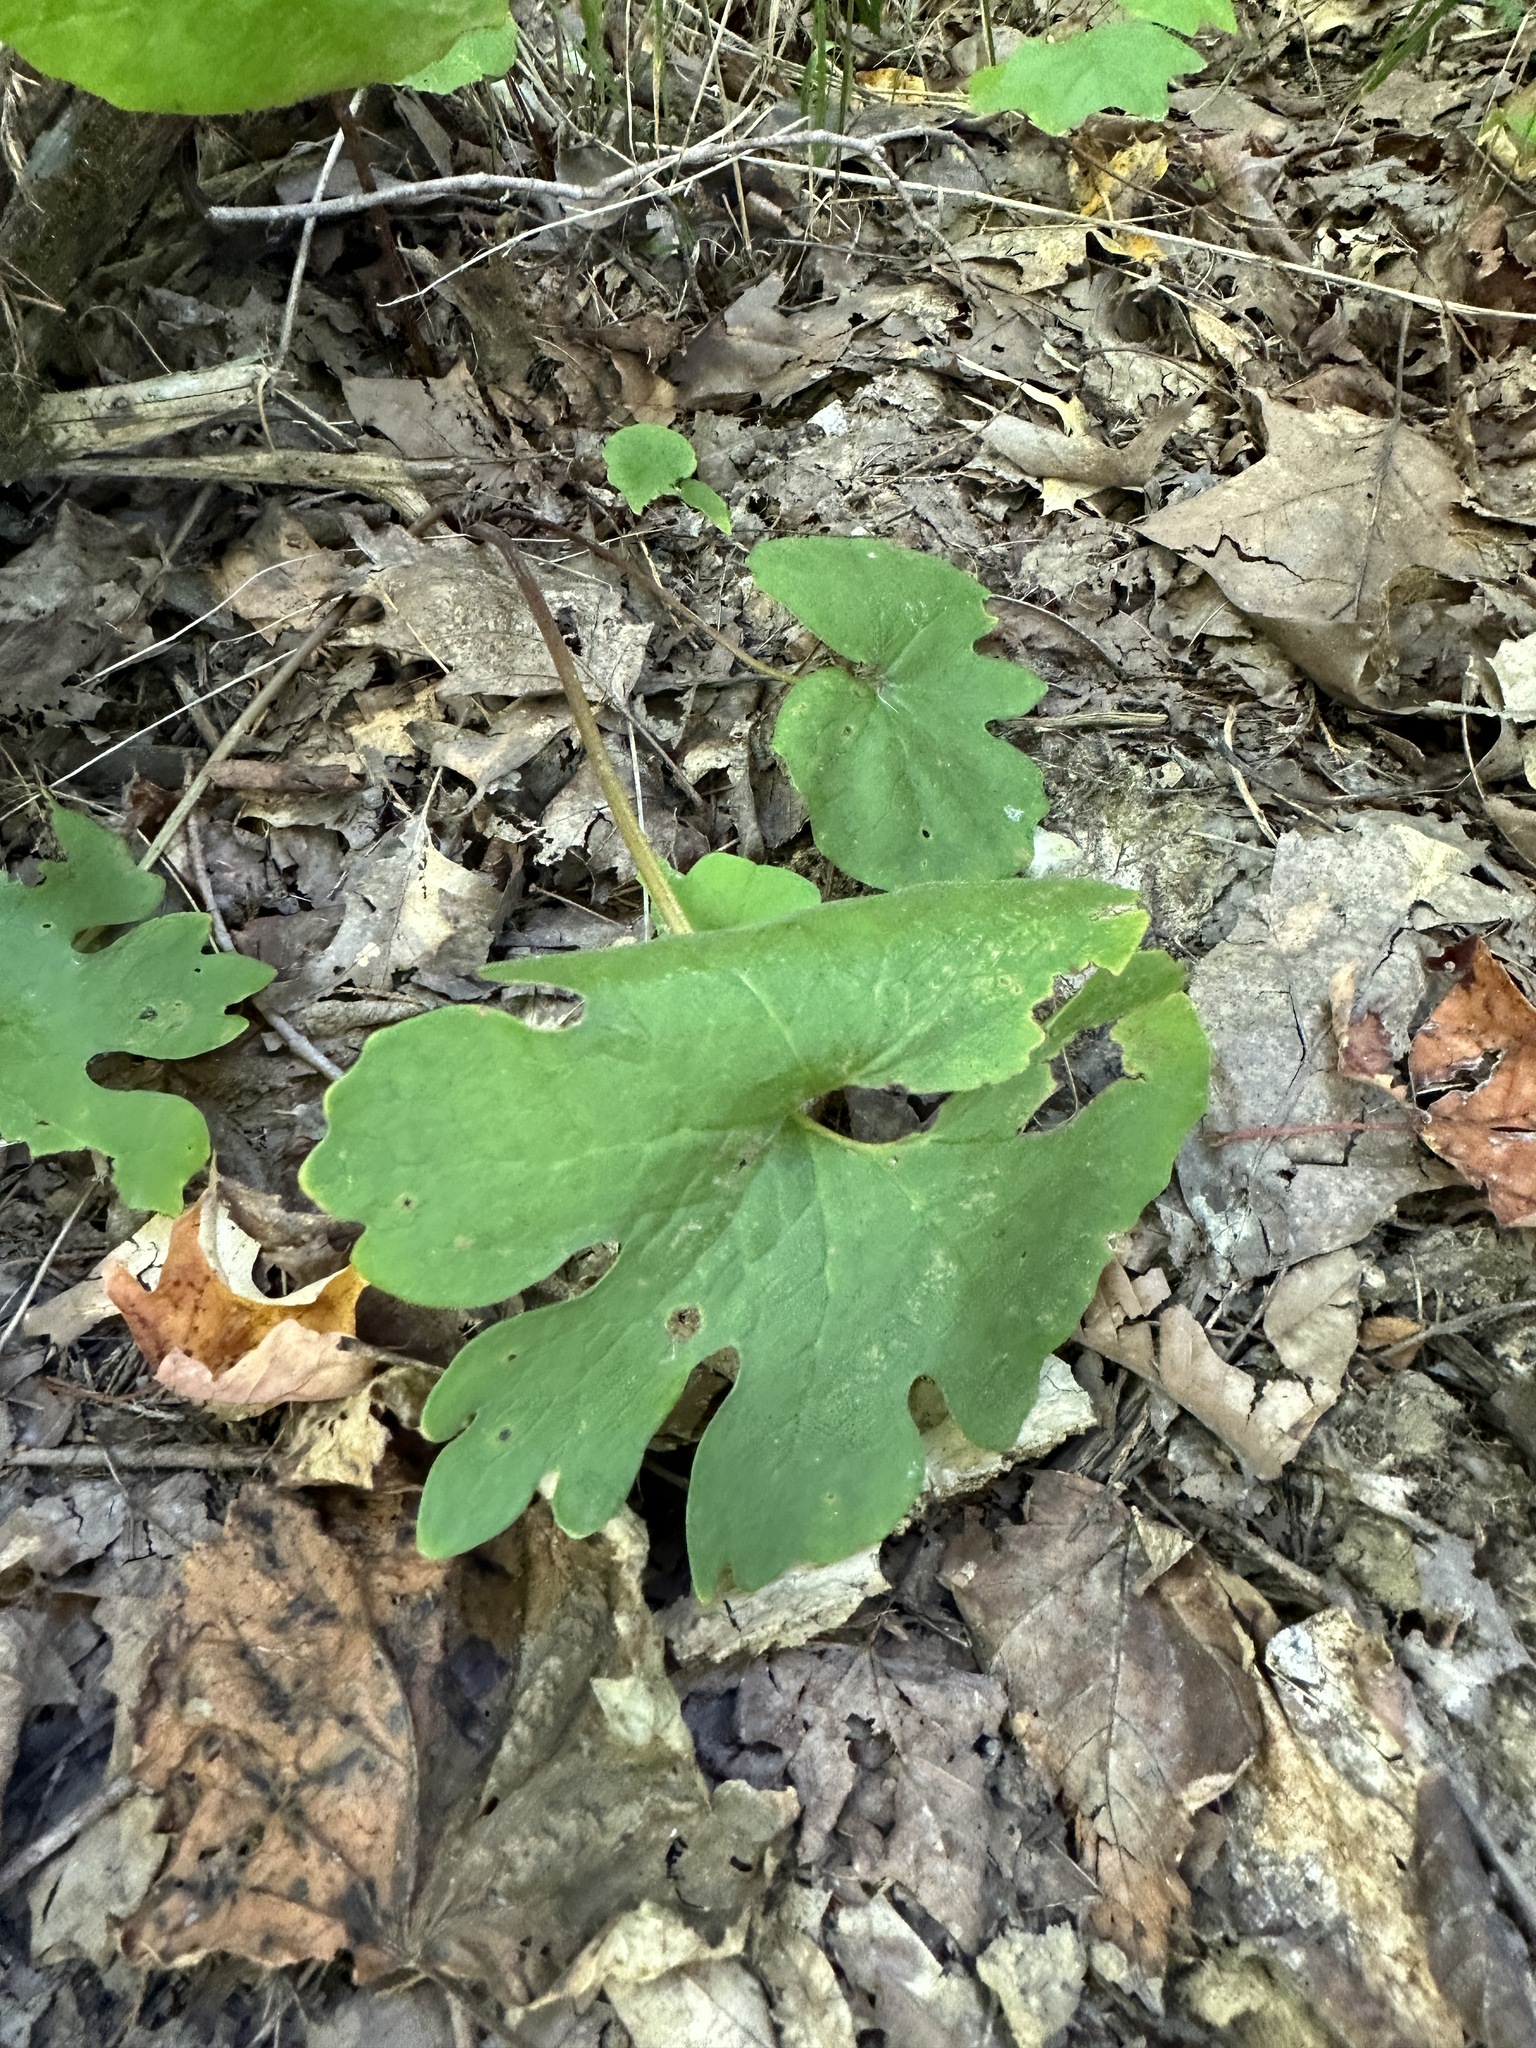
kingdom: Plantae
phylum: Tracheophyta
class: Magnoliopsida
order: Ranunculales
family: Papaveraceae
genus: Sanguinaria
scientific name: Sanguinaria canadensis
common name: Bloodroot
